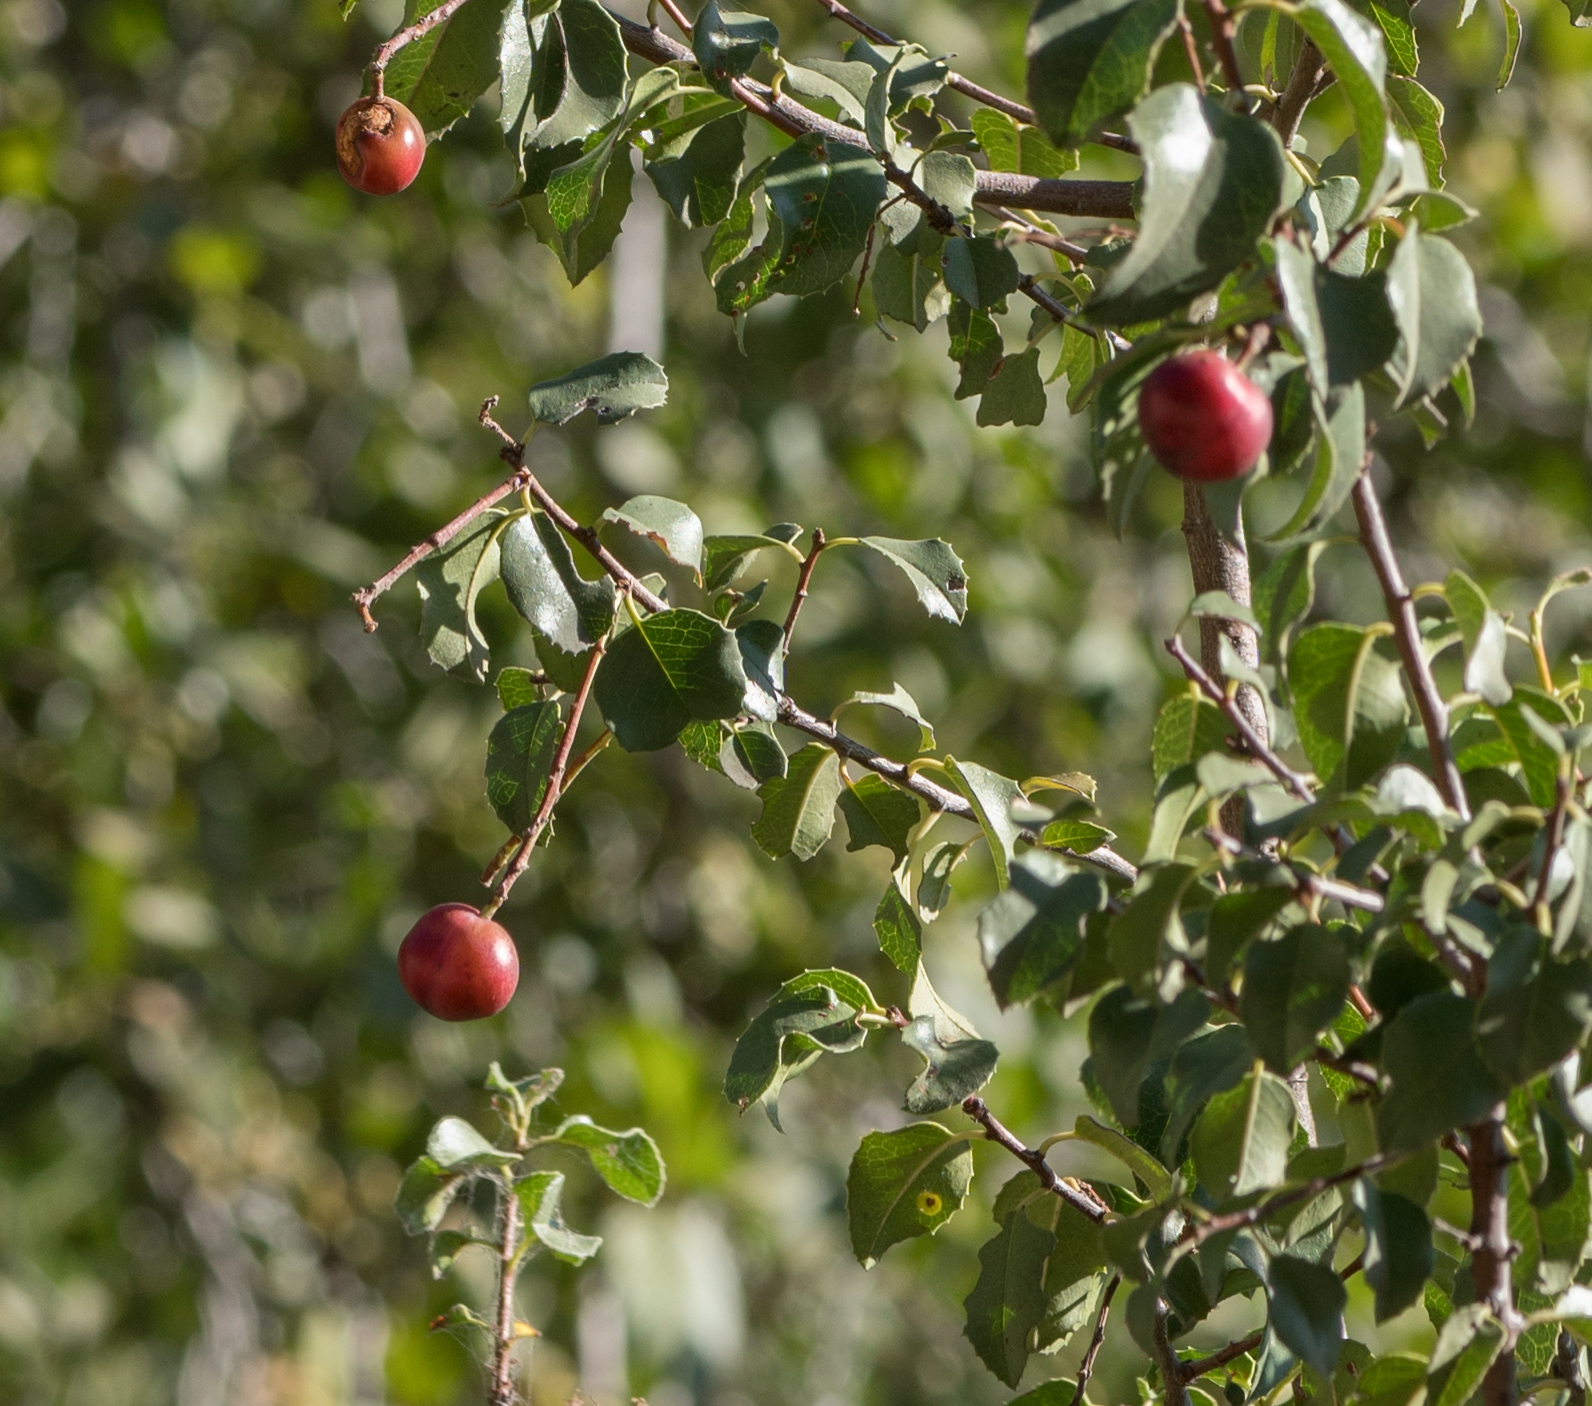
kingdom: Plantae
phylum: Tracheophyta
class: Magnoliopsida
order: Rosales
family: Rosaceae
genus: Prunus
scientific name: Prunus ilicifolia
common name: Hollyleaf cherry
